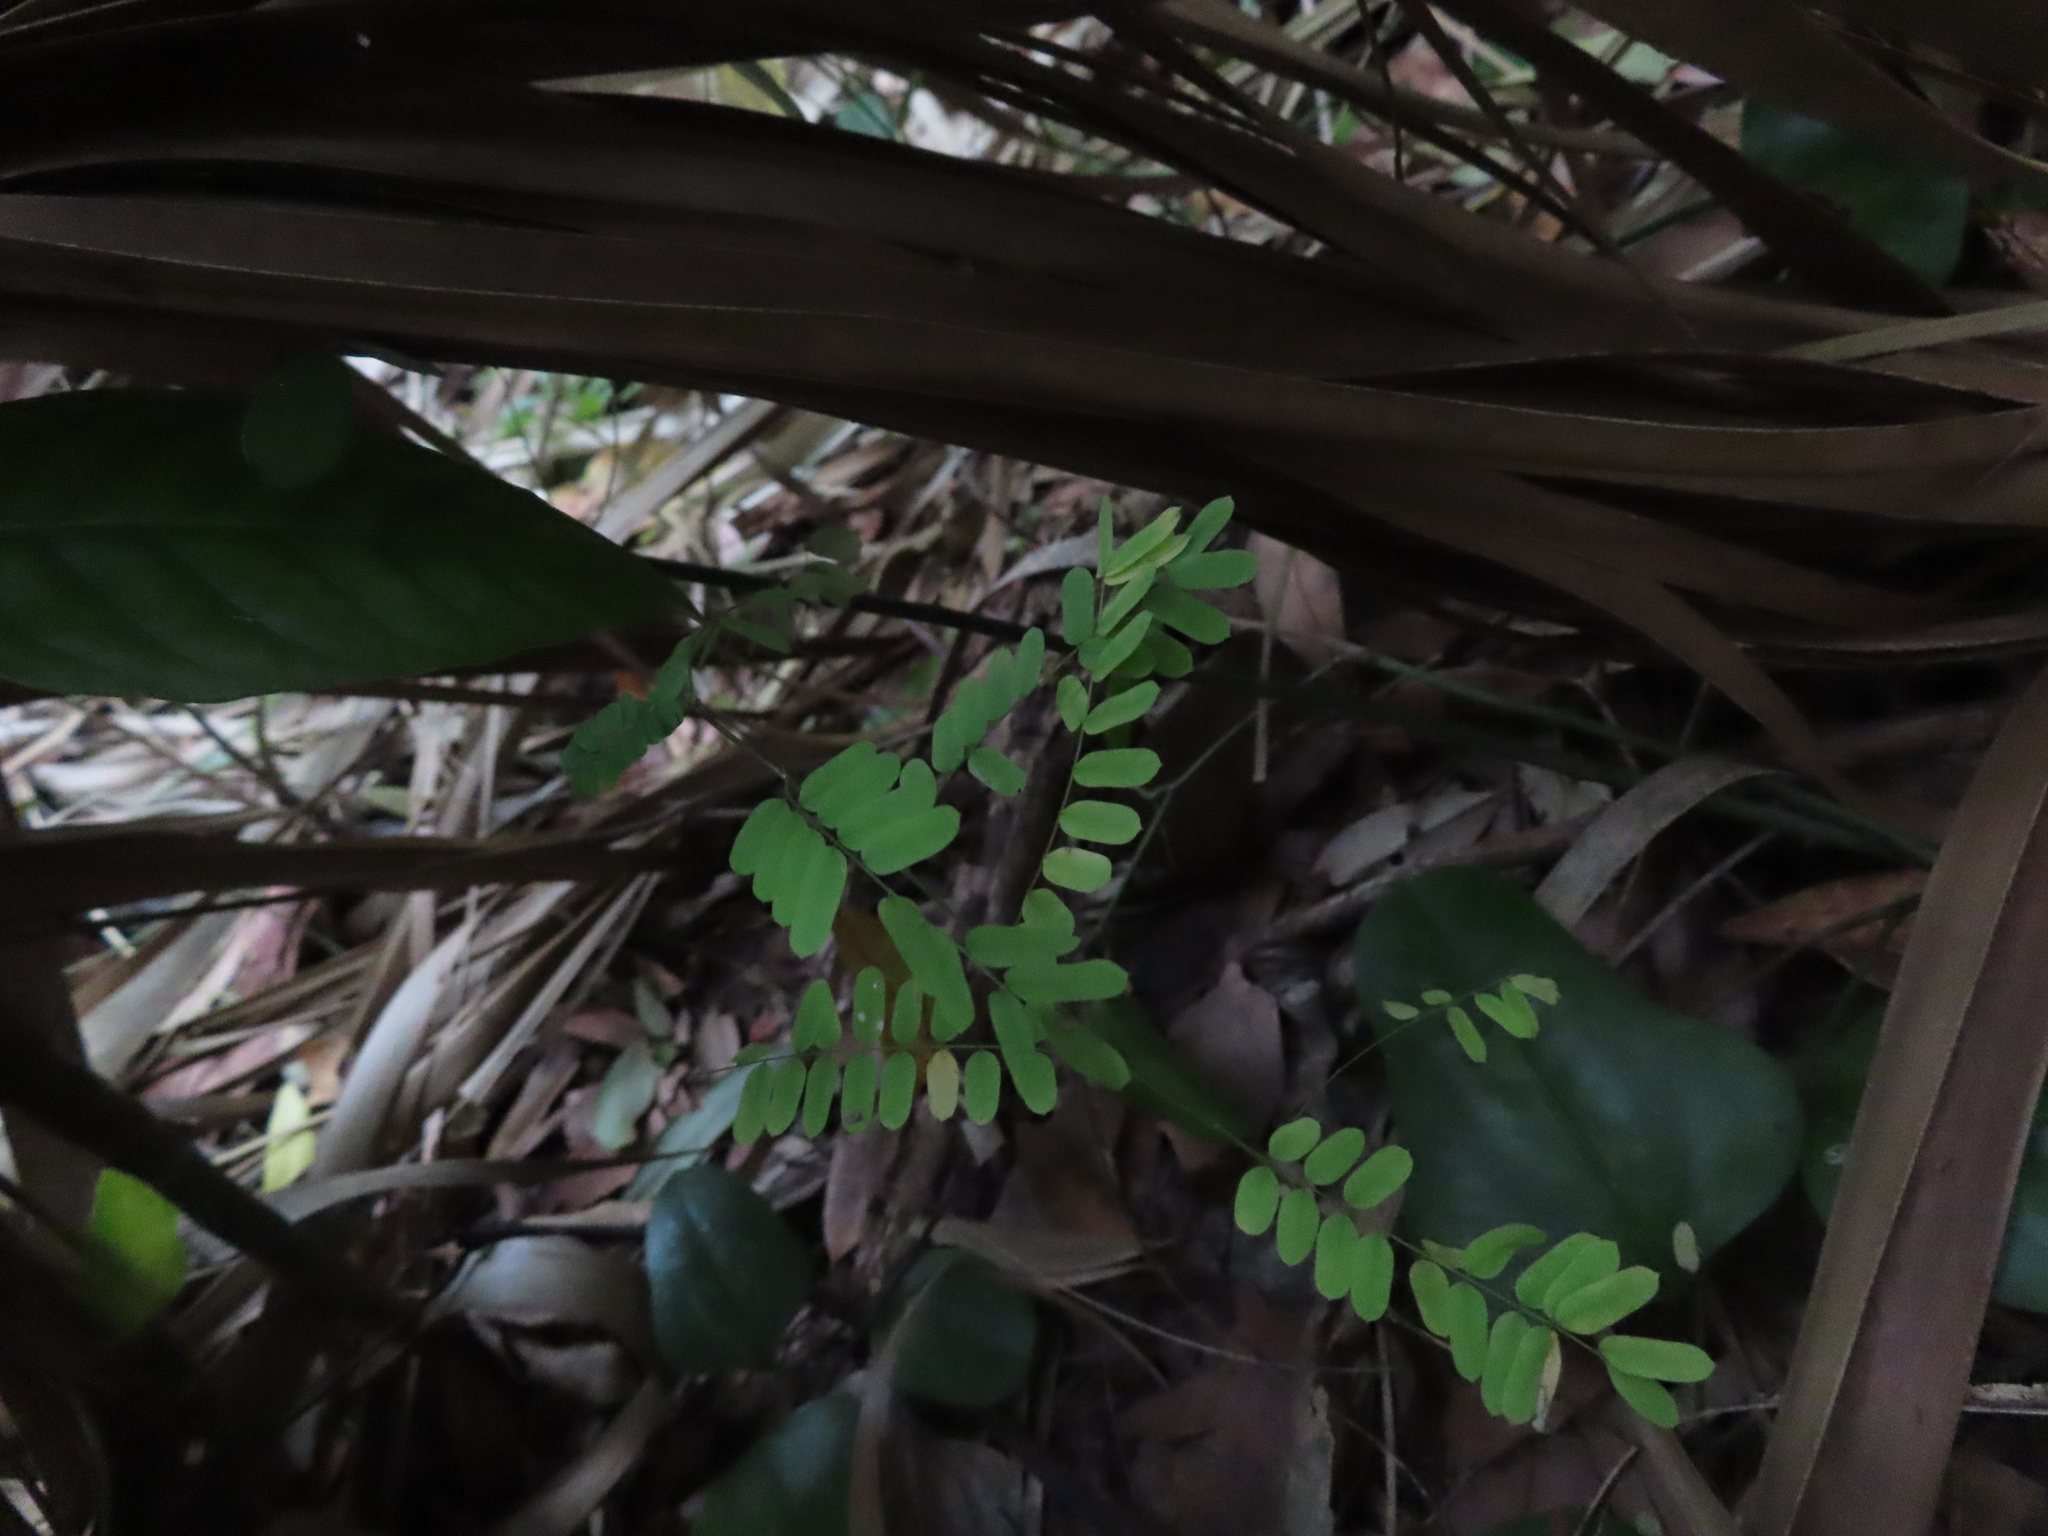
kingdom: Plantae
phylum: Tracheophyta
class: Magnoliopsida
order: Fabales
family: Fabaceae
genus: Abrus
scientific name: Abrus precatorius
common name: Rosarypea
